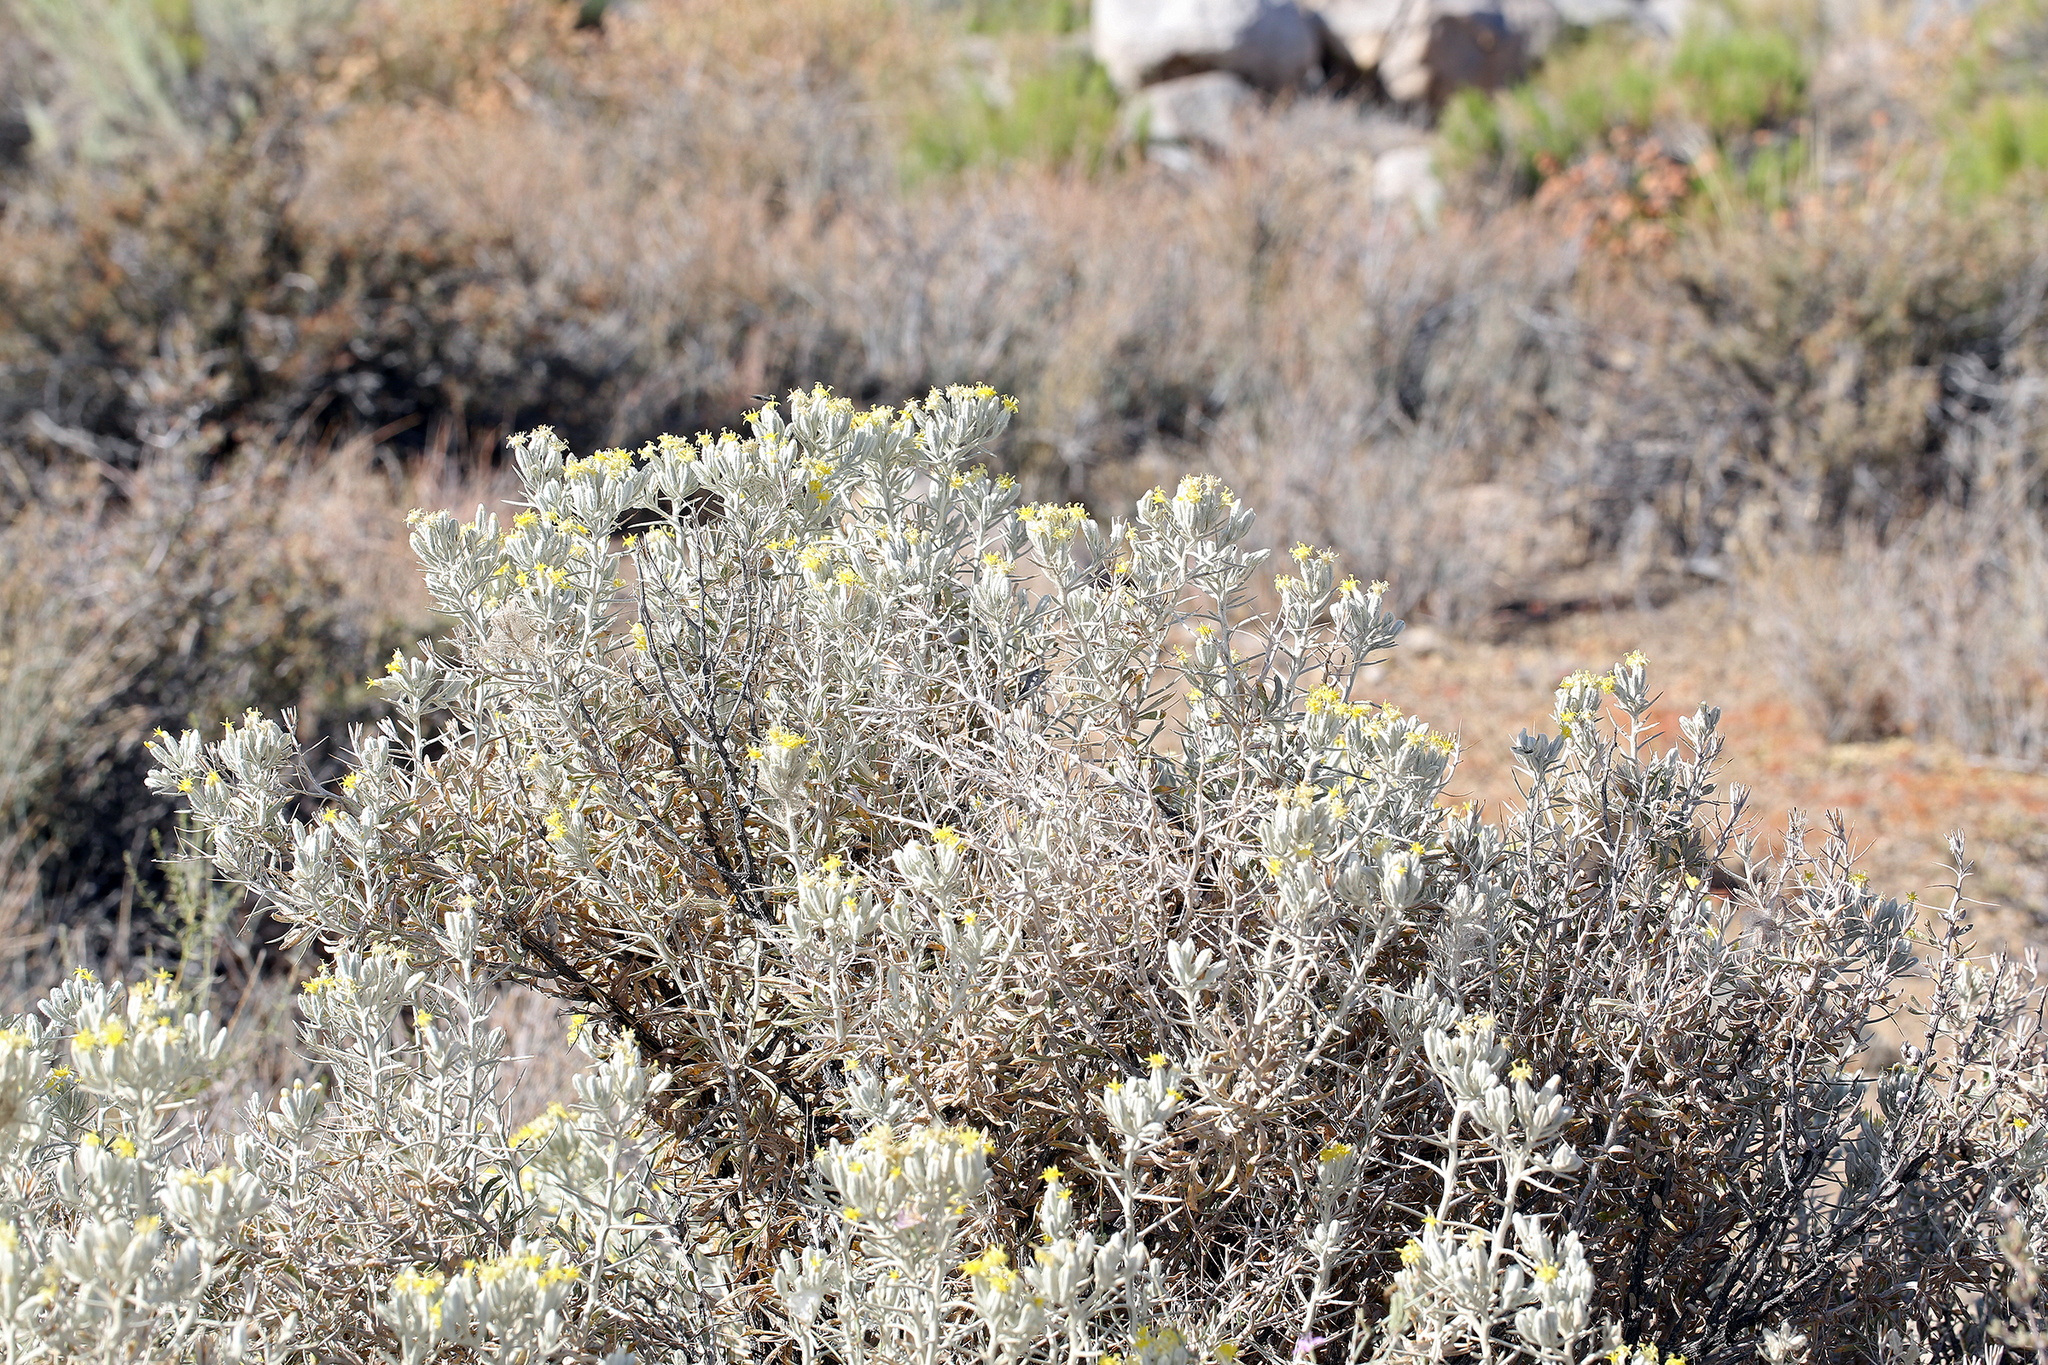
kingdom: Plantae
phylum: Tracheophyta
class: Magnoliopsida
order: Asterales
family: Asteraceae
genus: Tetradymia
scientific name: Tetradymia stenolepis
